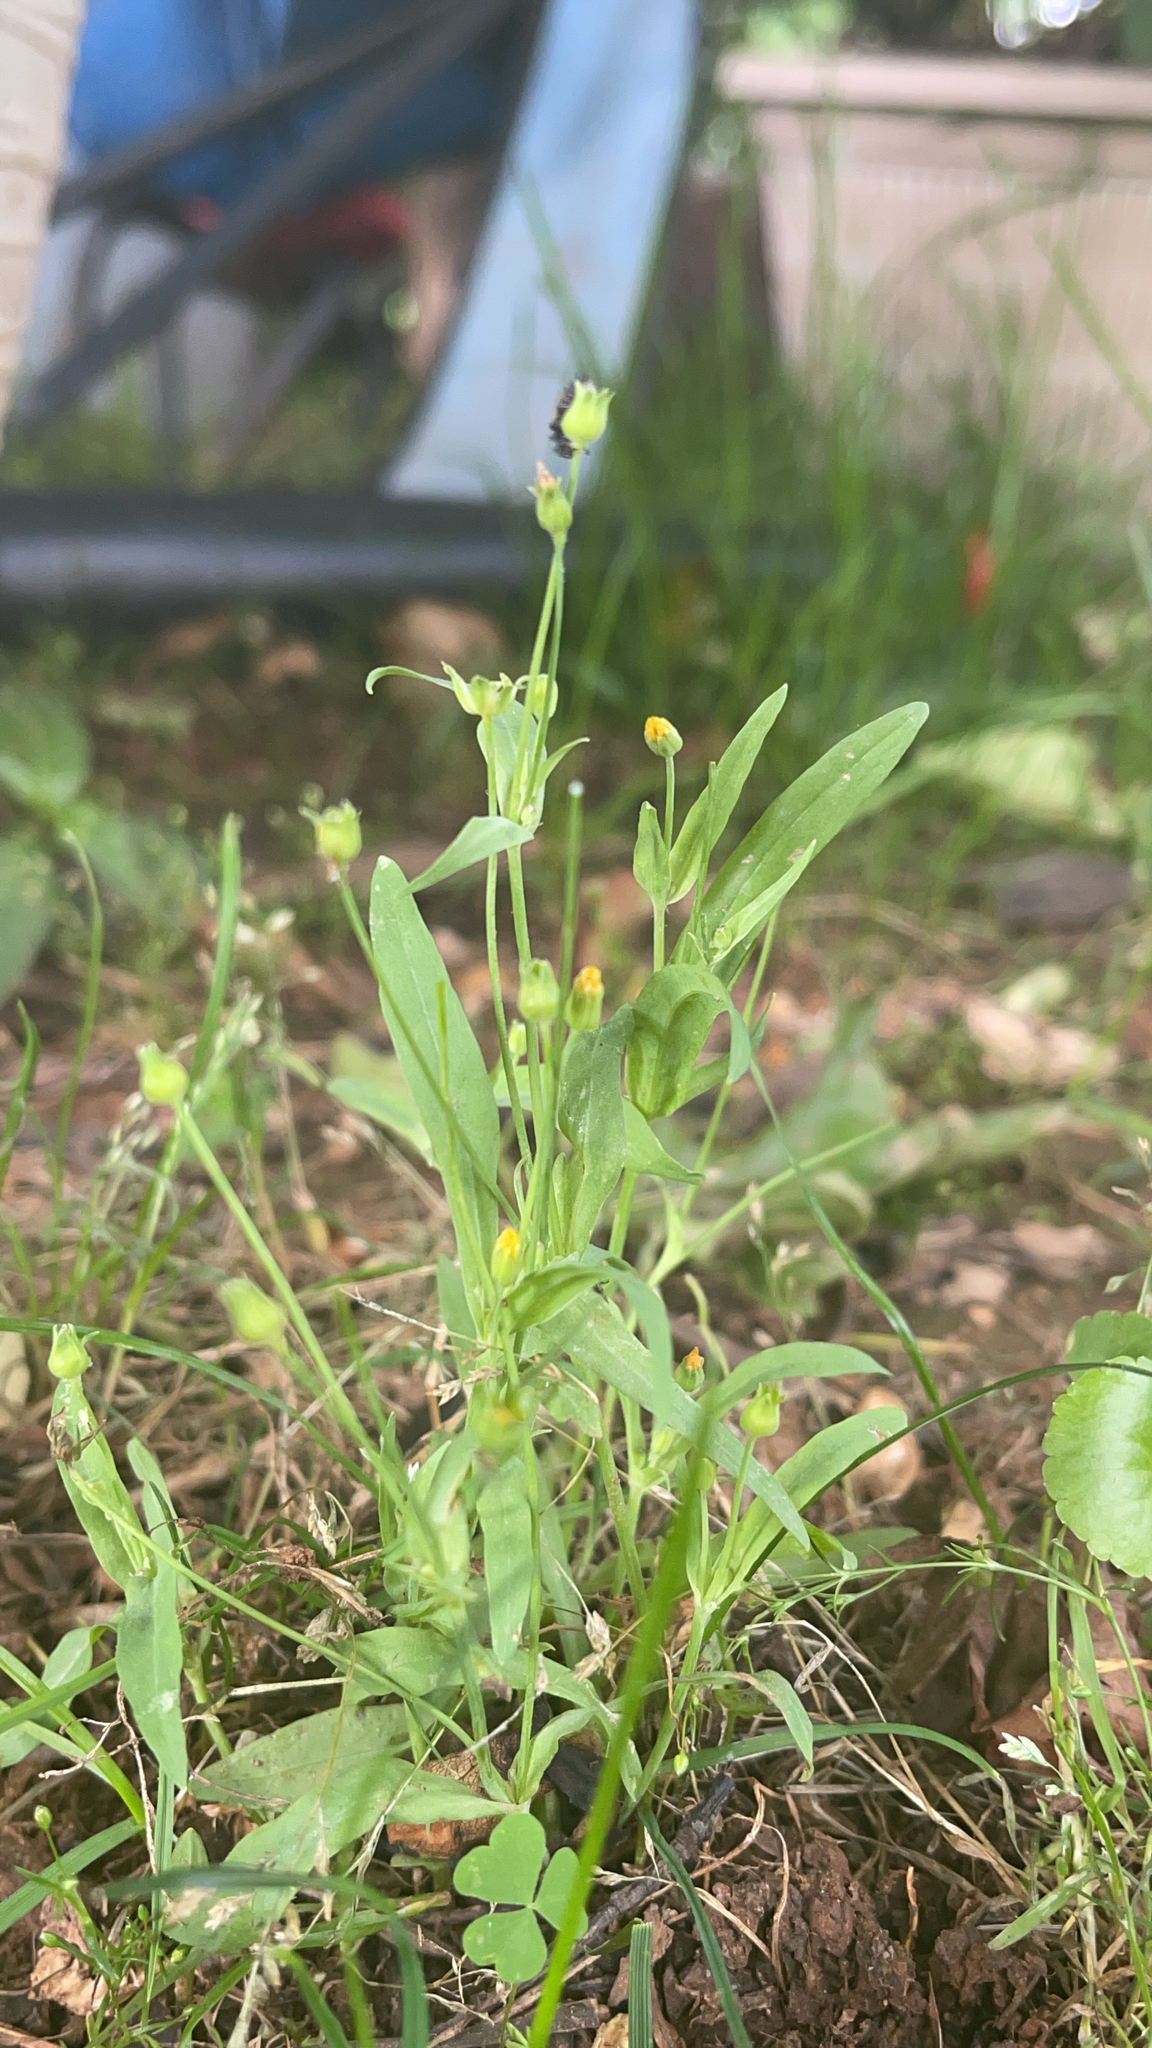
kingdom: Plantae
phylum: Tracheophyta
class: Magnoliopsida
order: Asterales
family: Asteraceae
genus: Krigia
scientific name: Krigia cespitosa
